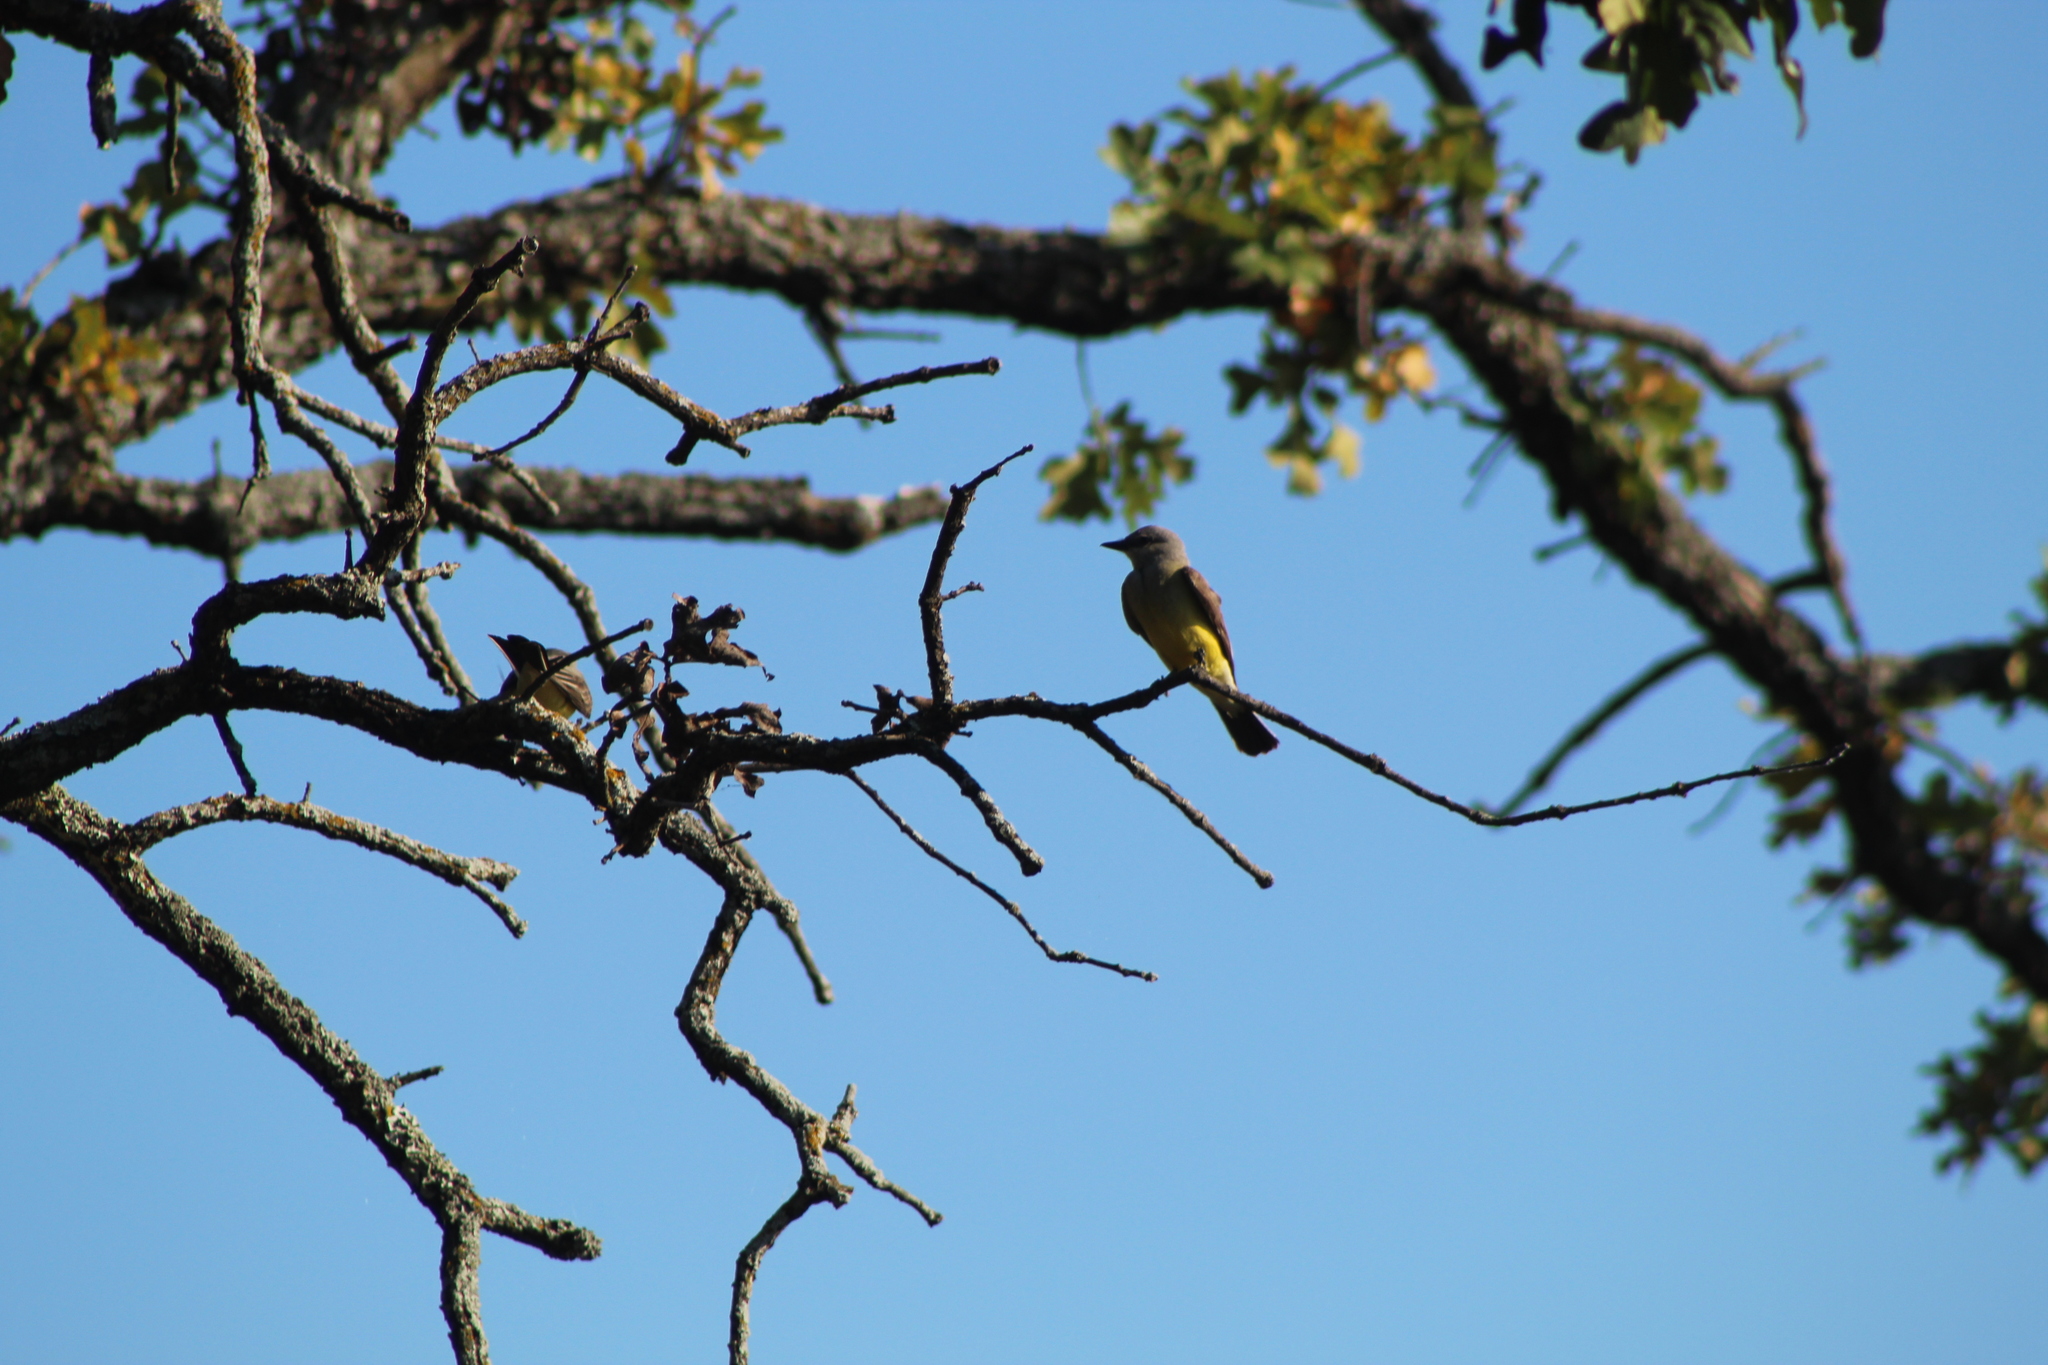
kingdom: Animalia
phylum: Chordata
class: Aves
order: Passeriformes
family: Tyrannidae
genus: Tyrannus
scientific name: Tyrannus verticalis
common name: Western kingbird
